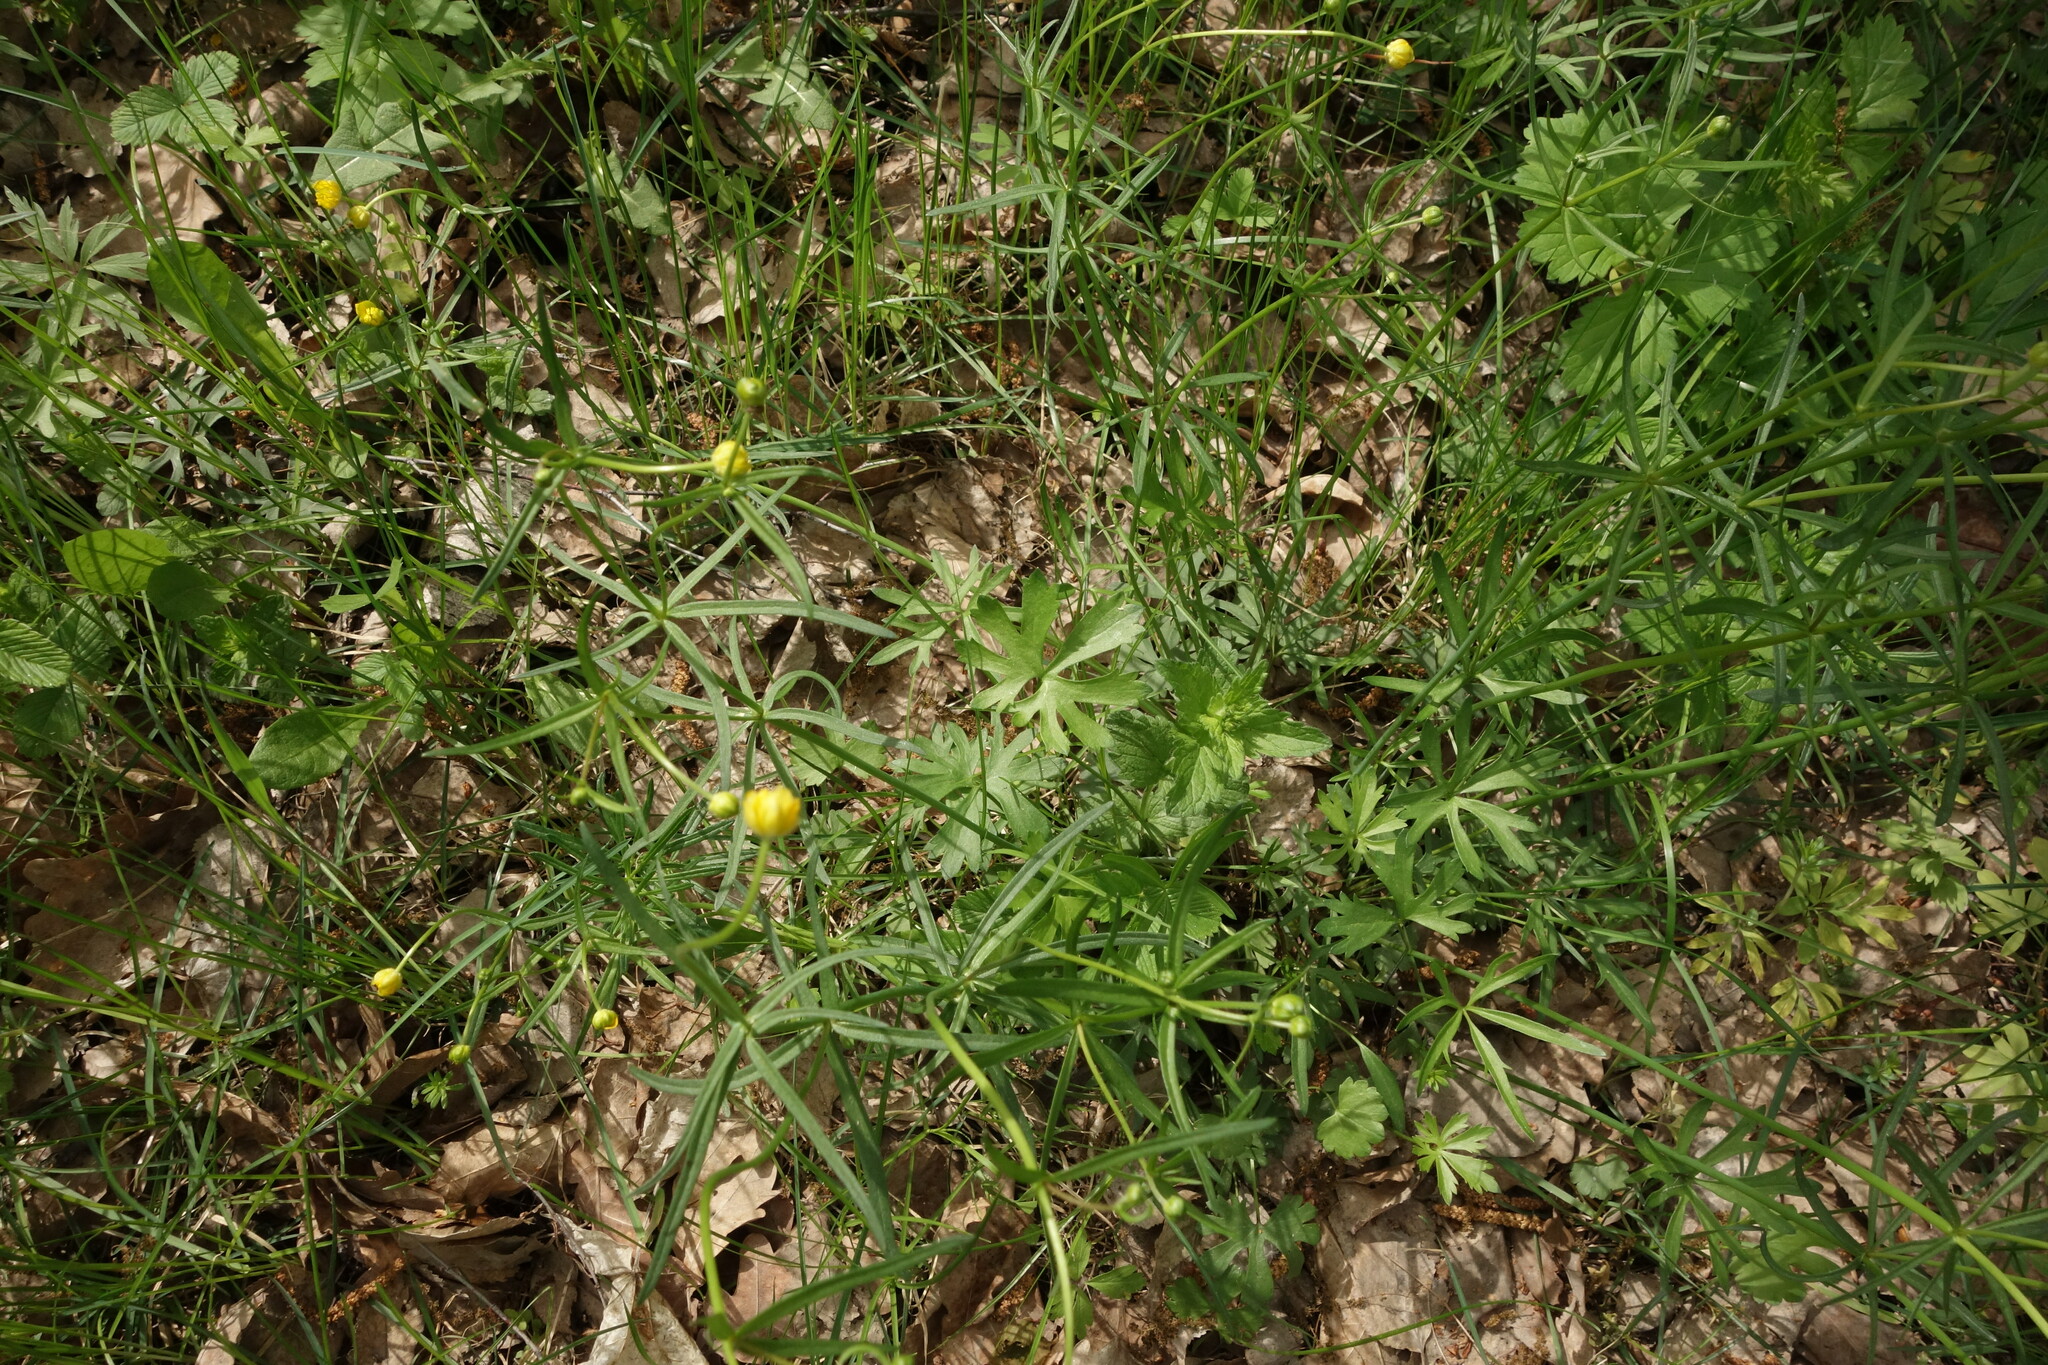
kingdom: Plantae
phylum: Tracheophyta
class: Magnoliopsida
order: Ranunculales
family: Ranunculaceae
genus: Ranunculus
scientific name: Ranunculus auricomus
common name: Goldilocks buttercup
